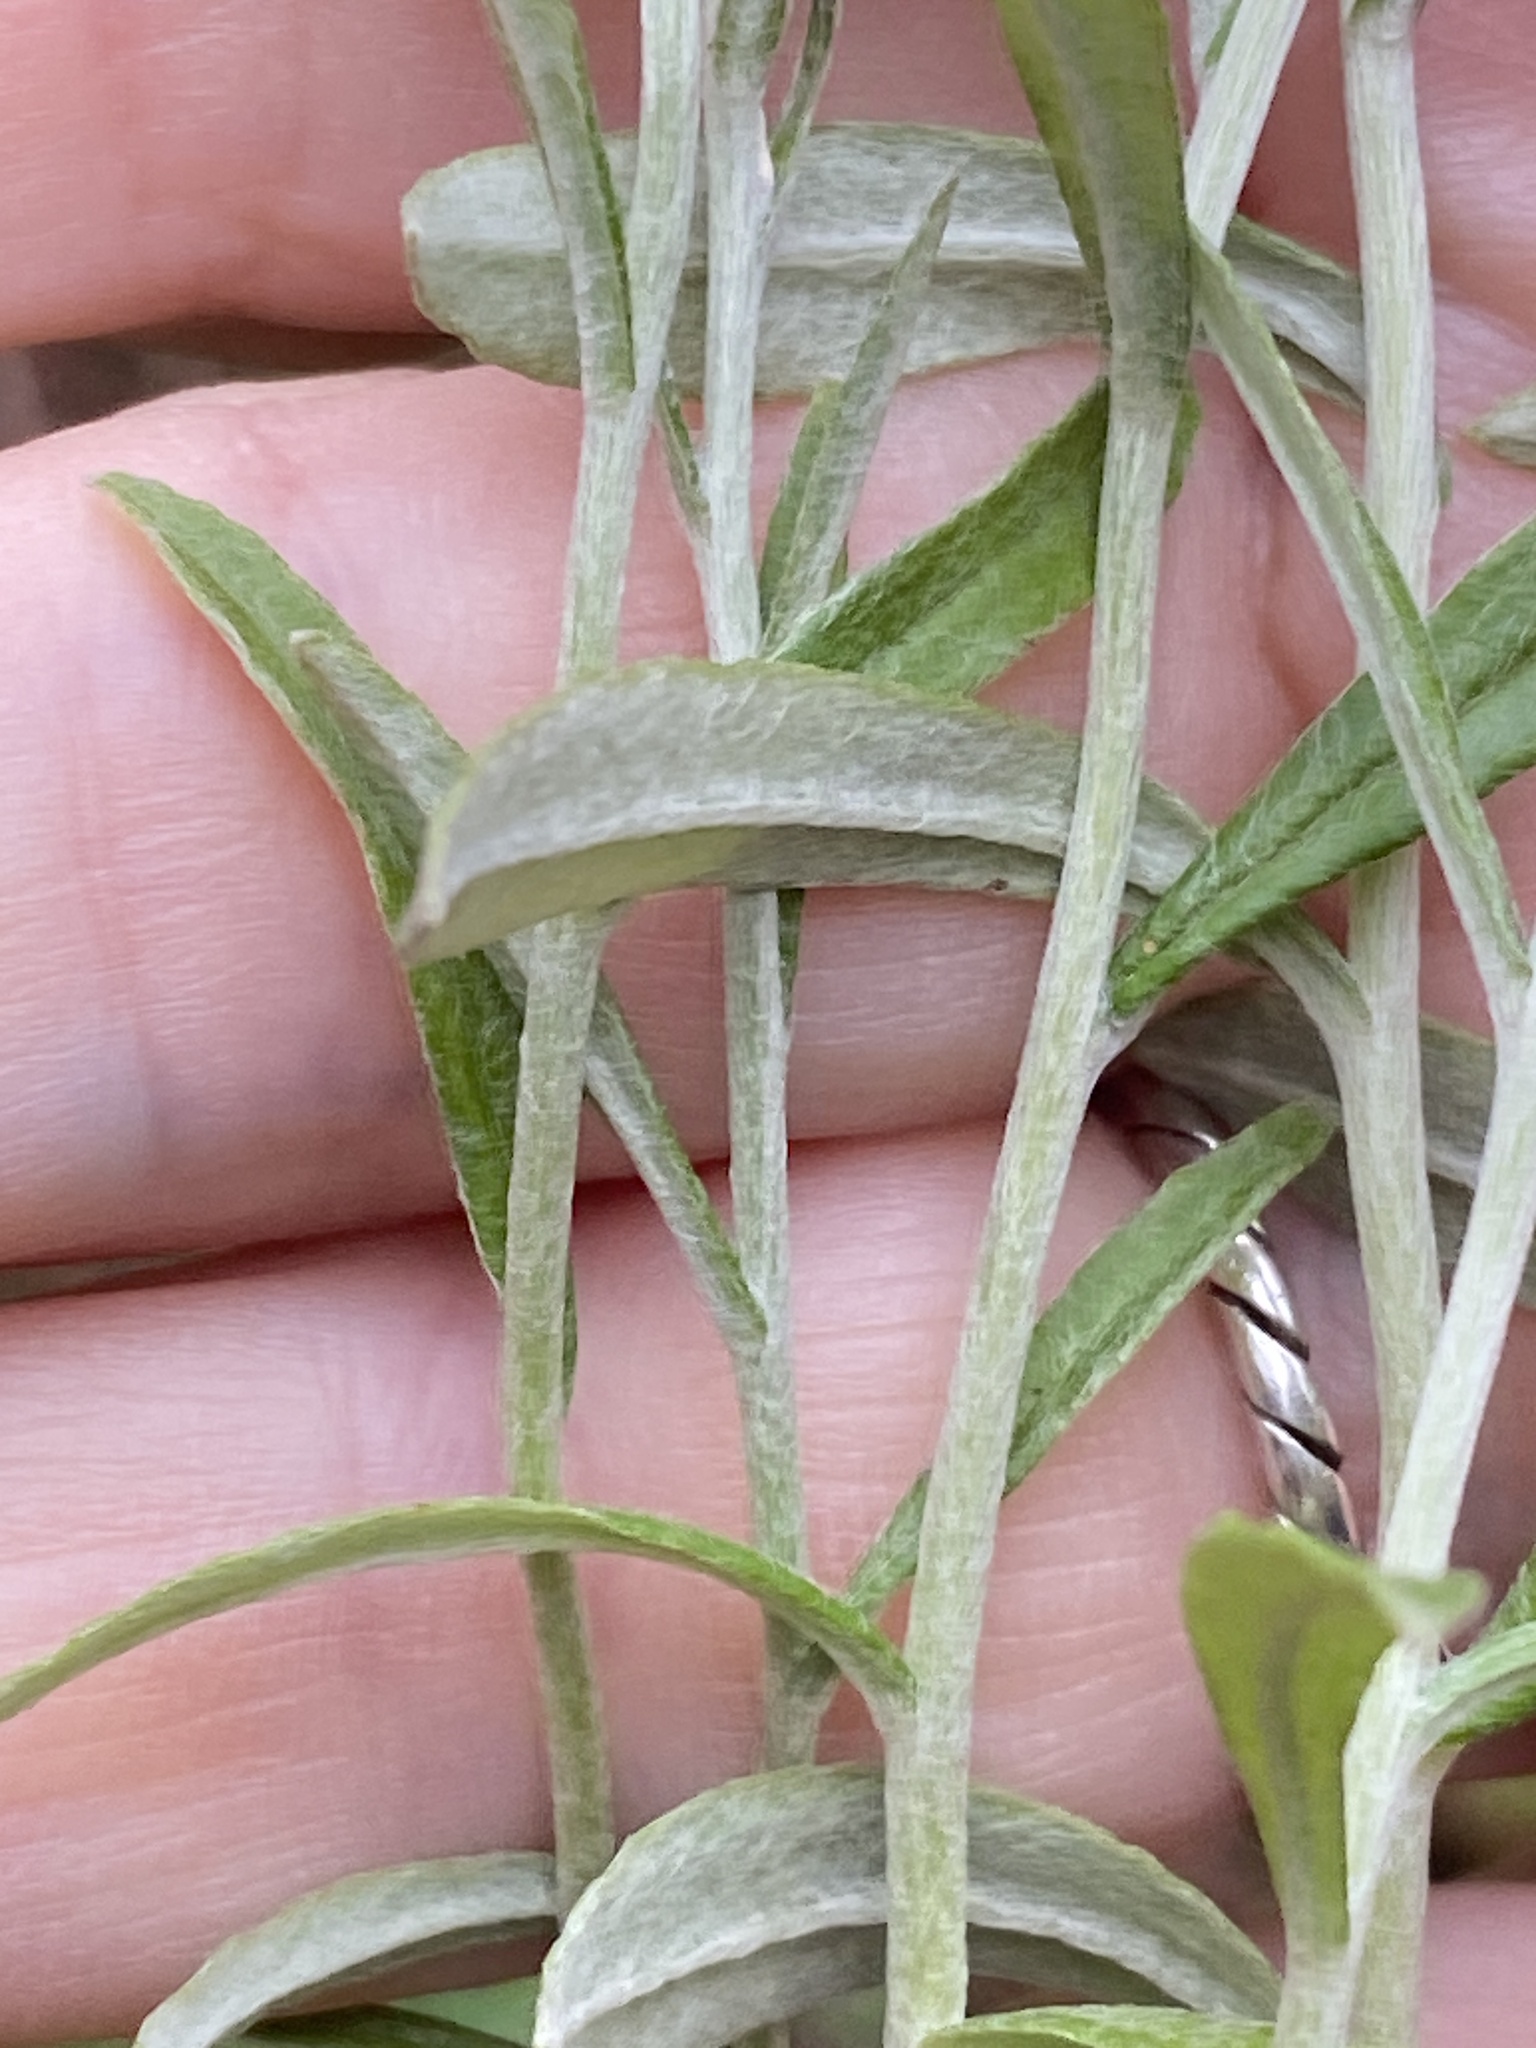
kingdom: Plantae
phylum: Tracheophyta
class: Magnoliopsida
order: Asterales
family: Asteraceae
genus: Pseudognaphalium
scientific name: Pseudognaphalium obtusifolium
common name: Eastern rabbit-tobacco
